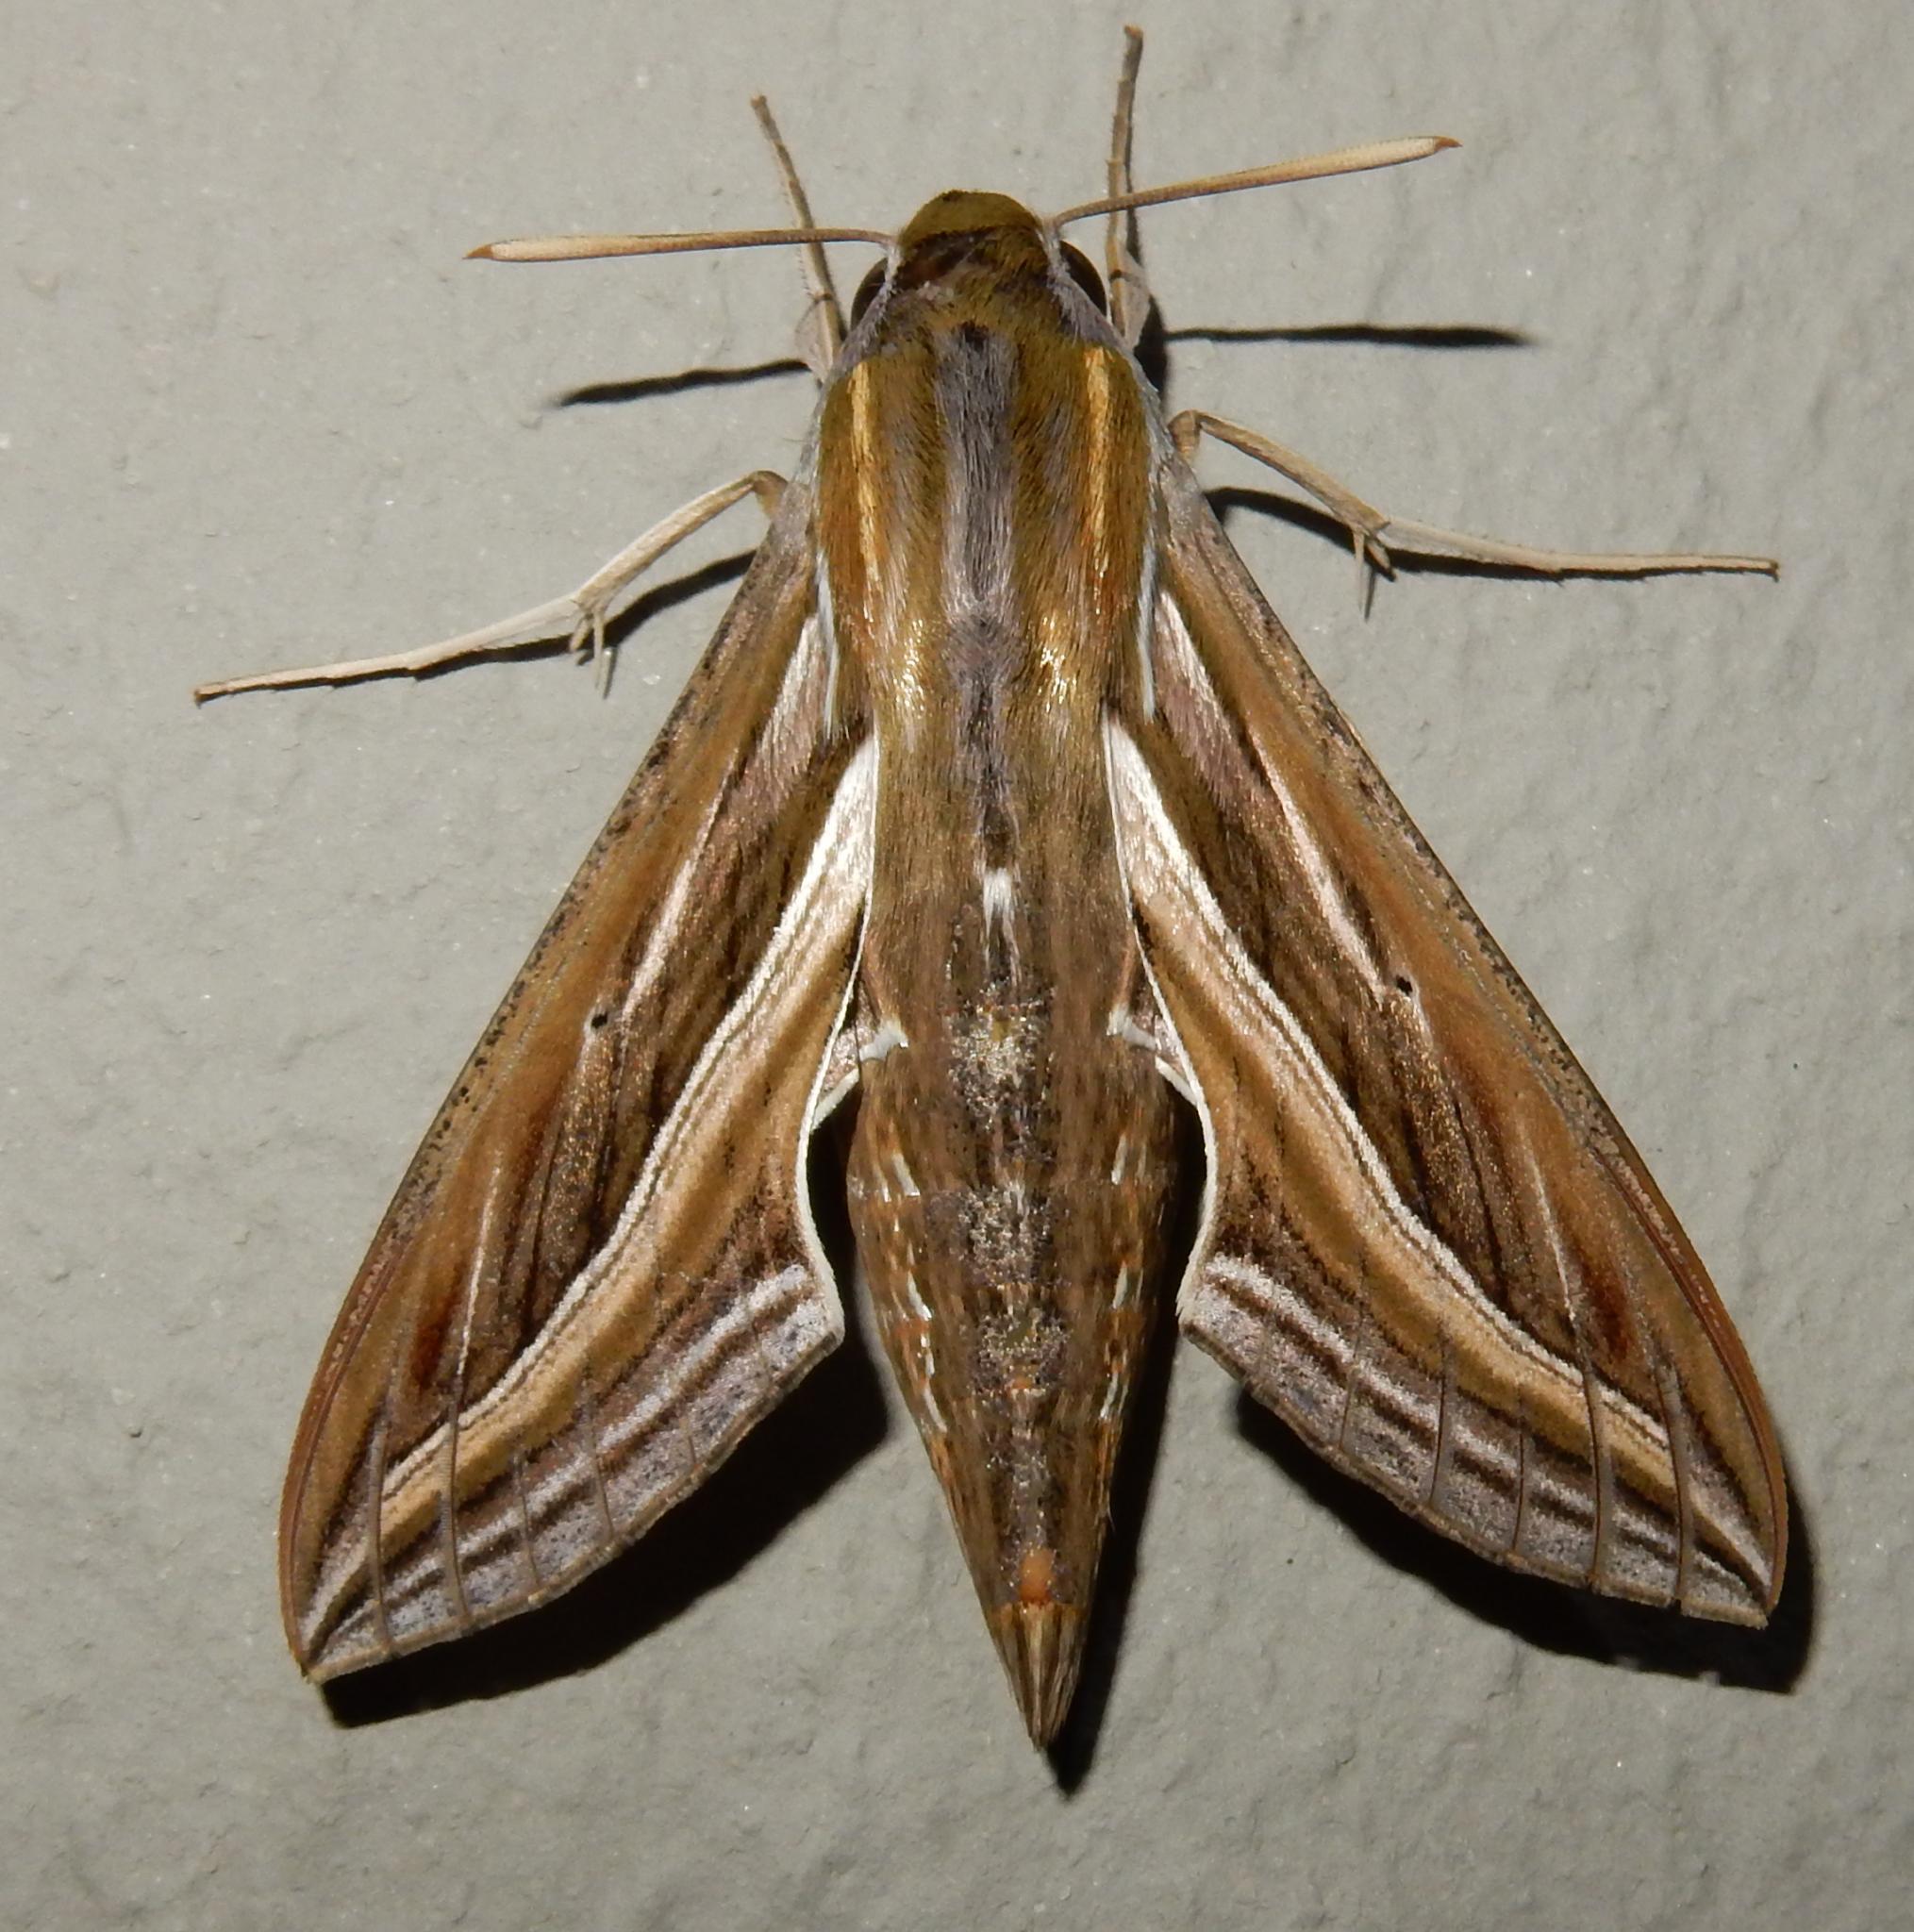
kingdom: Animalia
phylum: Arthropoda
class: Insecta
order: Lepidoptera
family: Sphingidae
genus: Hippotion
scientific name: Hippotion celerio
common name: Silver-striped hawk-moth
